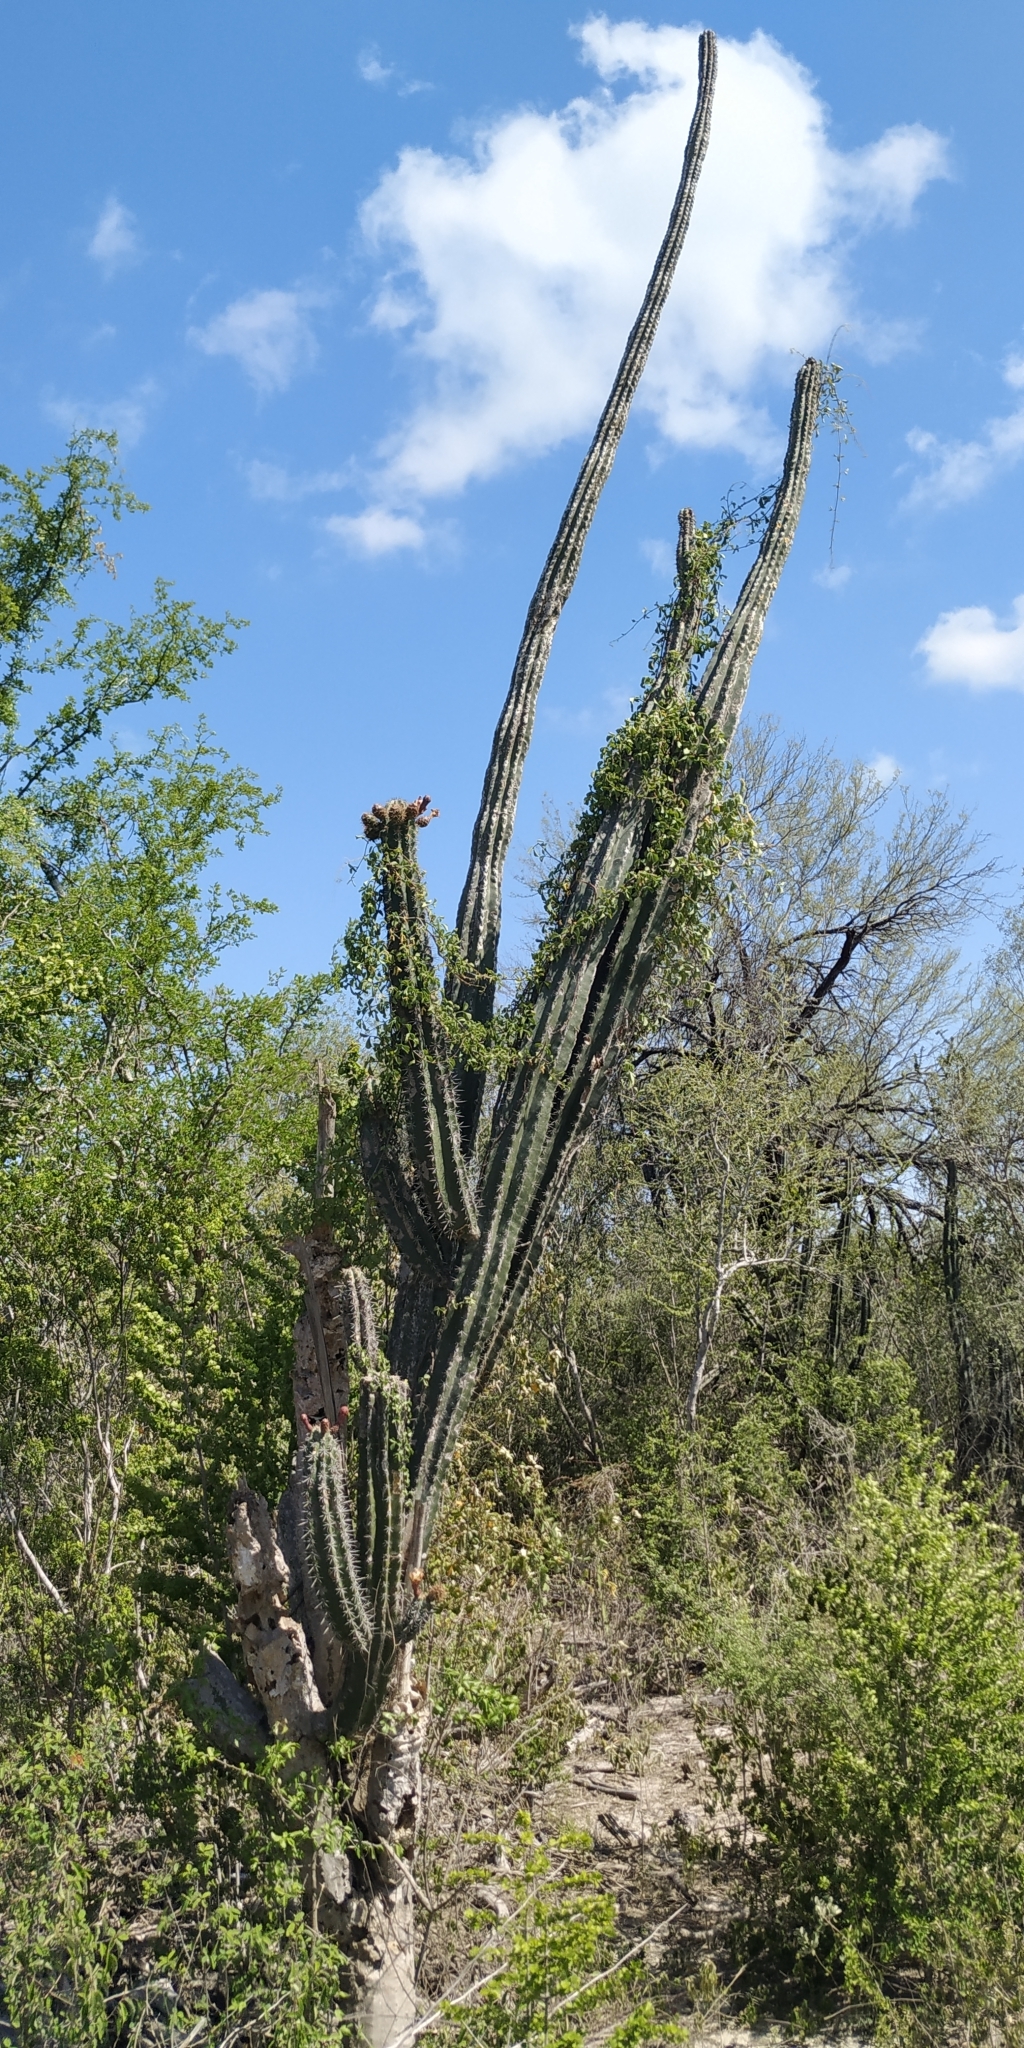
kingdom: Plantae
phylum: Tracheophyta
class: Magnoliopsida
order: Caryophyllales
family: Cactaceae
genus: Stenocereus
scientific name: Stenocereus huastecorum
